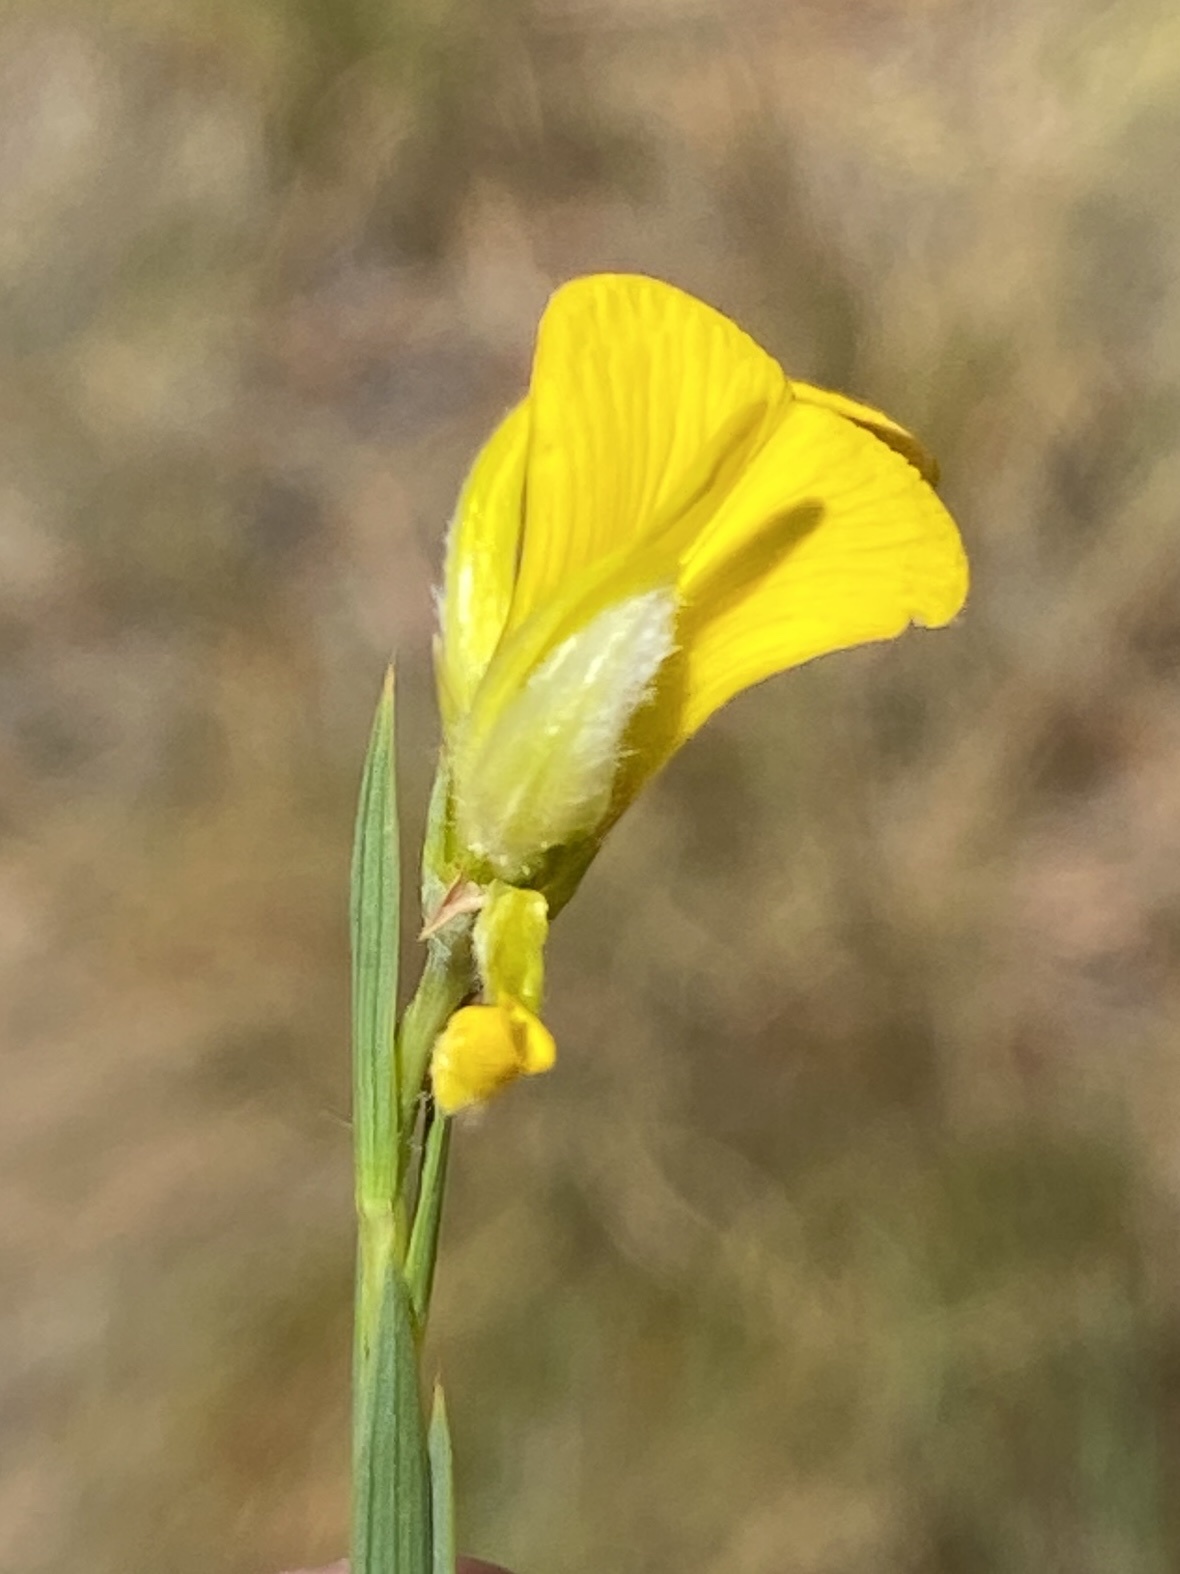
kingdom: Plantae
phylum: Tracheophyta
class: Magnoliopsida
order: Fabales
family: Fabaceae
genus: Aspalathus
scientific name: Aspalathus angustifolia
